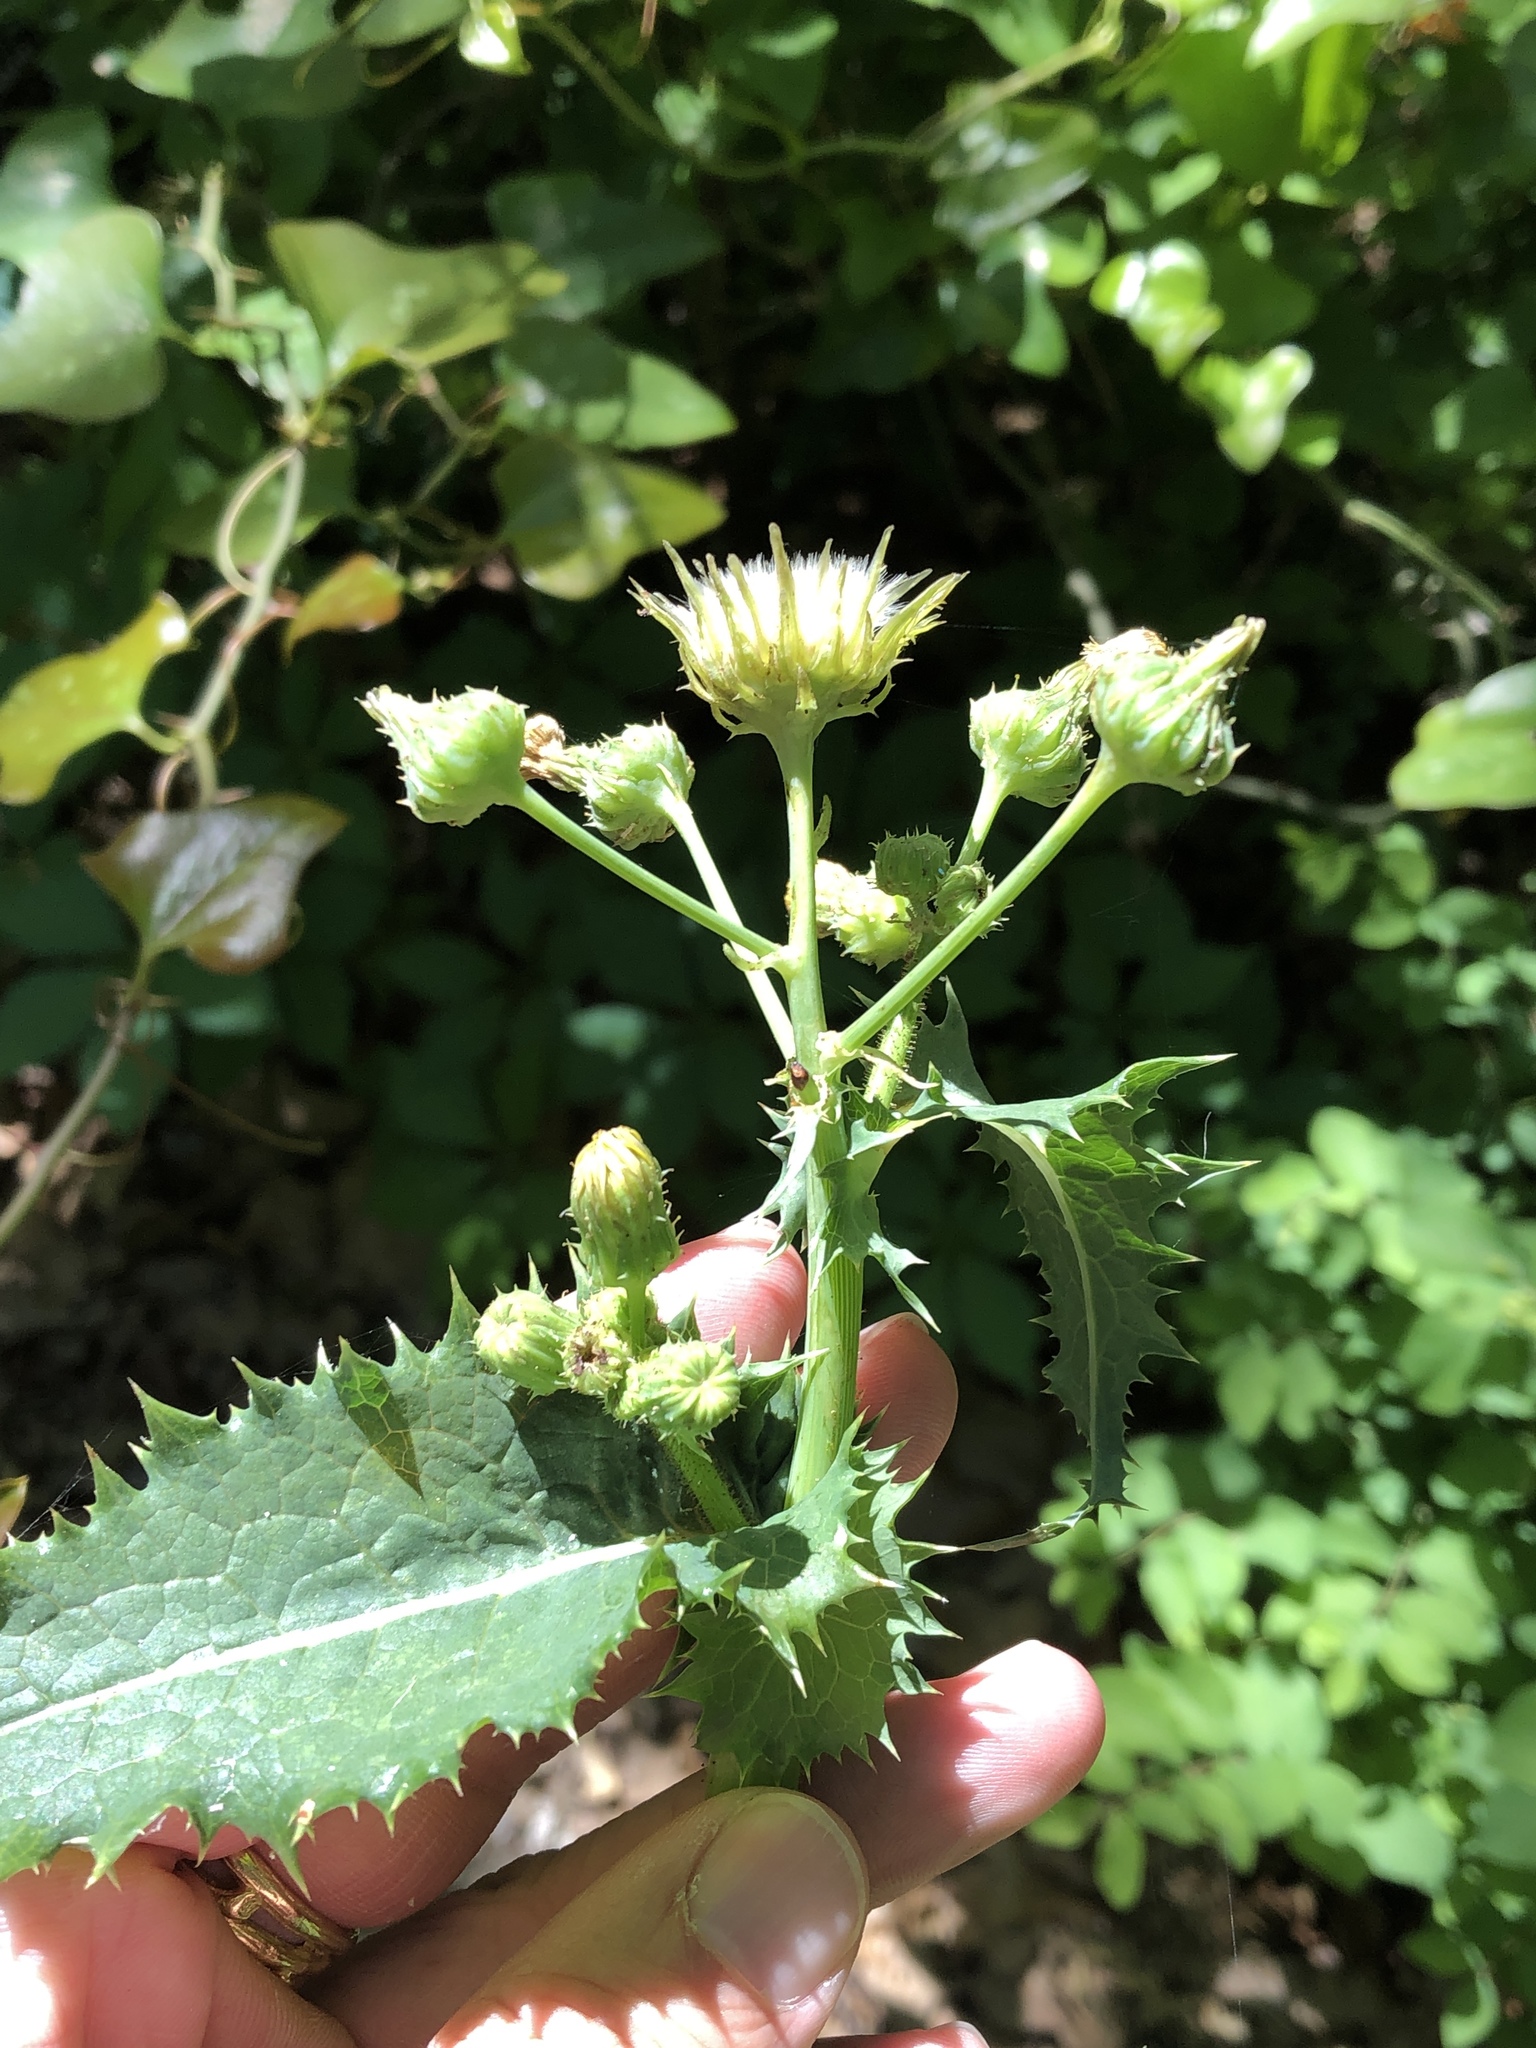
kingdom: Plantae
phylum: Tracheophyta
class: Magnoliopsida
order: Asterales
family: Asteraceae
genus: Sonchus
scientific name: Sonchus asper
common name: Prickly sow-thistle
